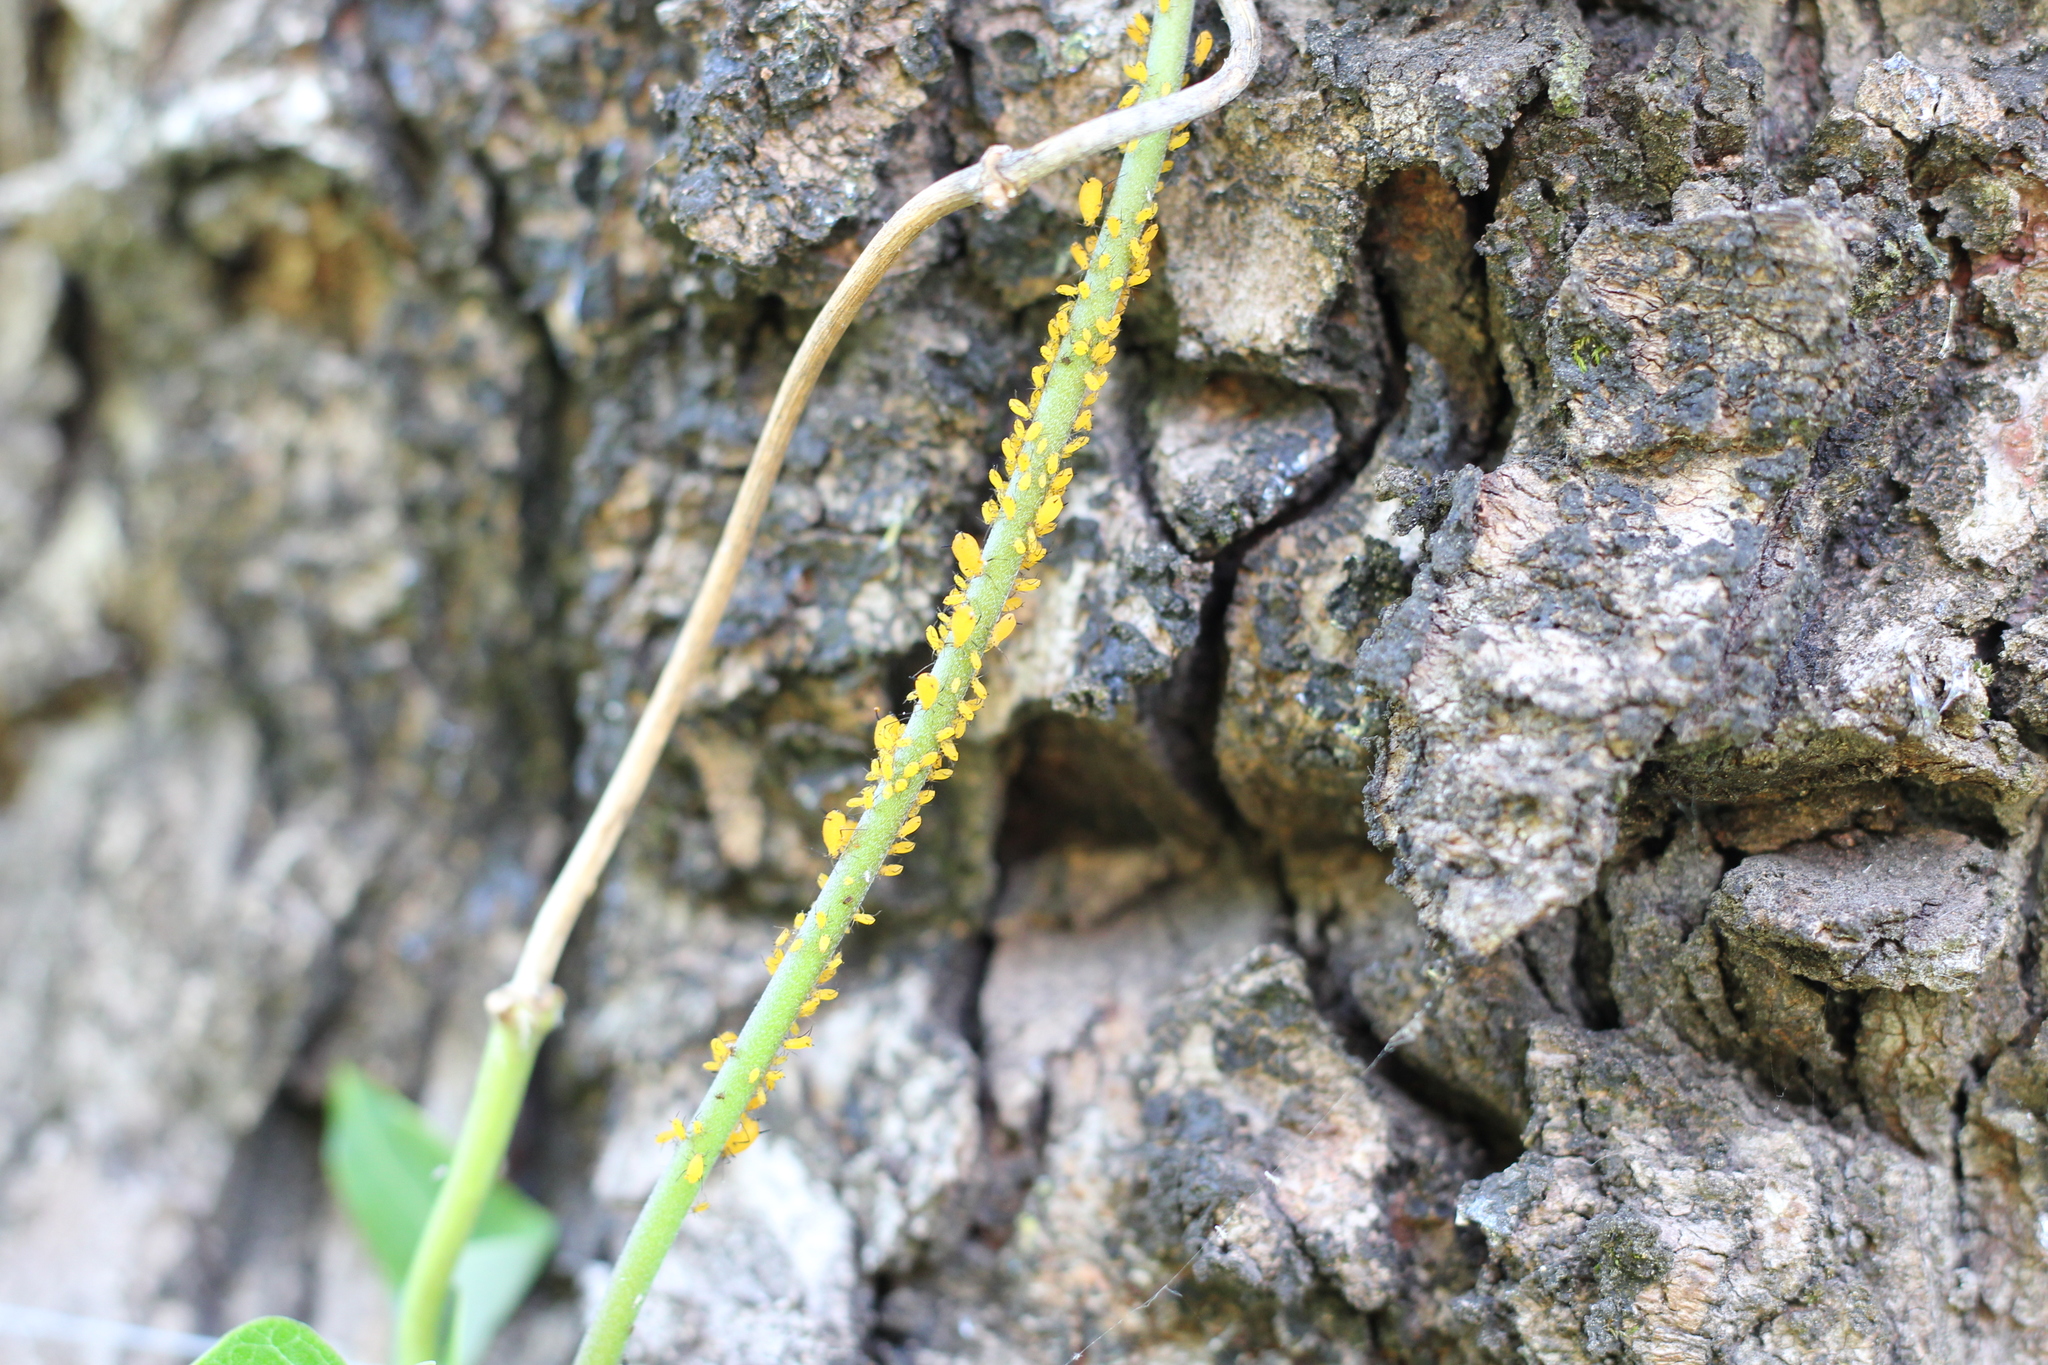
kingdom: Animalia
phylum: Arthropoda
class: Insecta
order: Hemiptera
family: Aphididae
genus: Aphis
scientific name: Aphis nerii
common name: Oleander aphid
